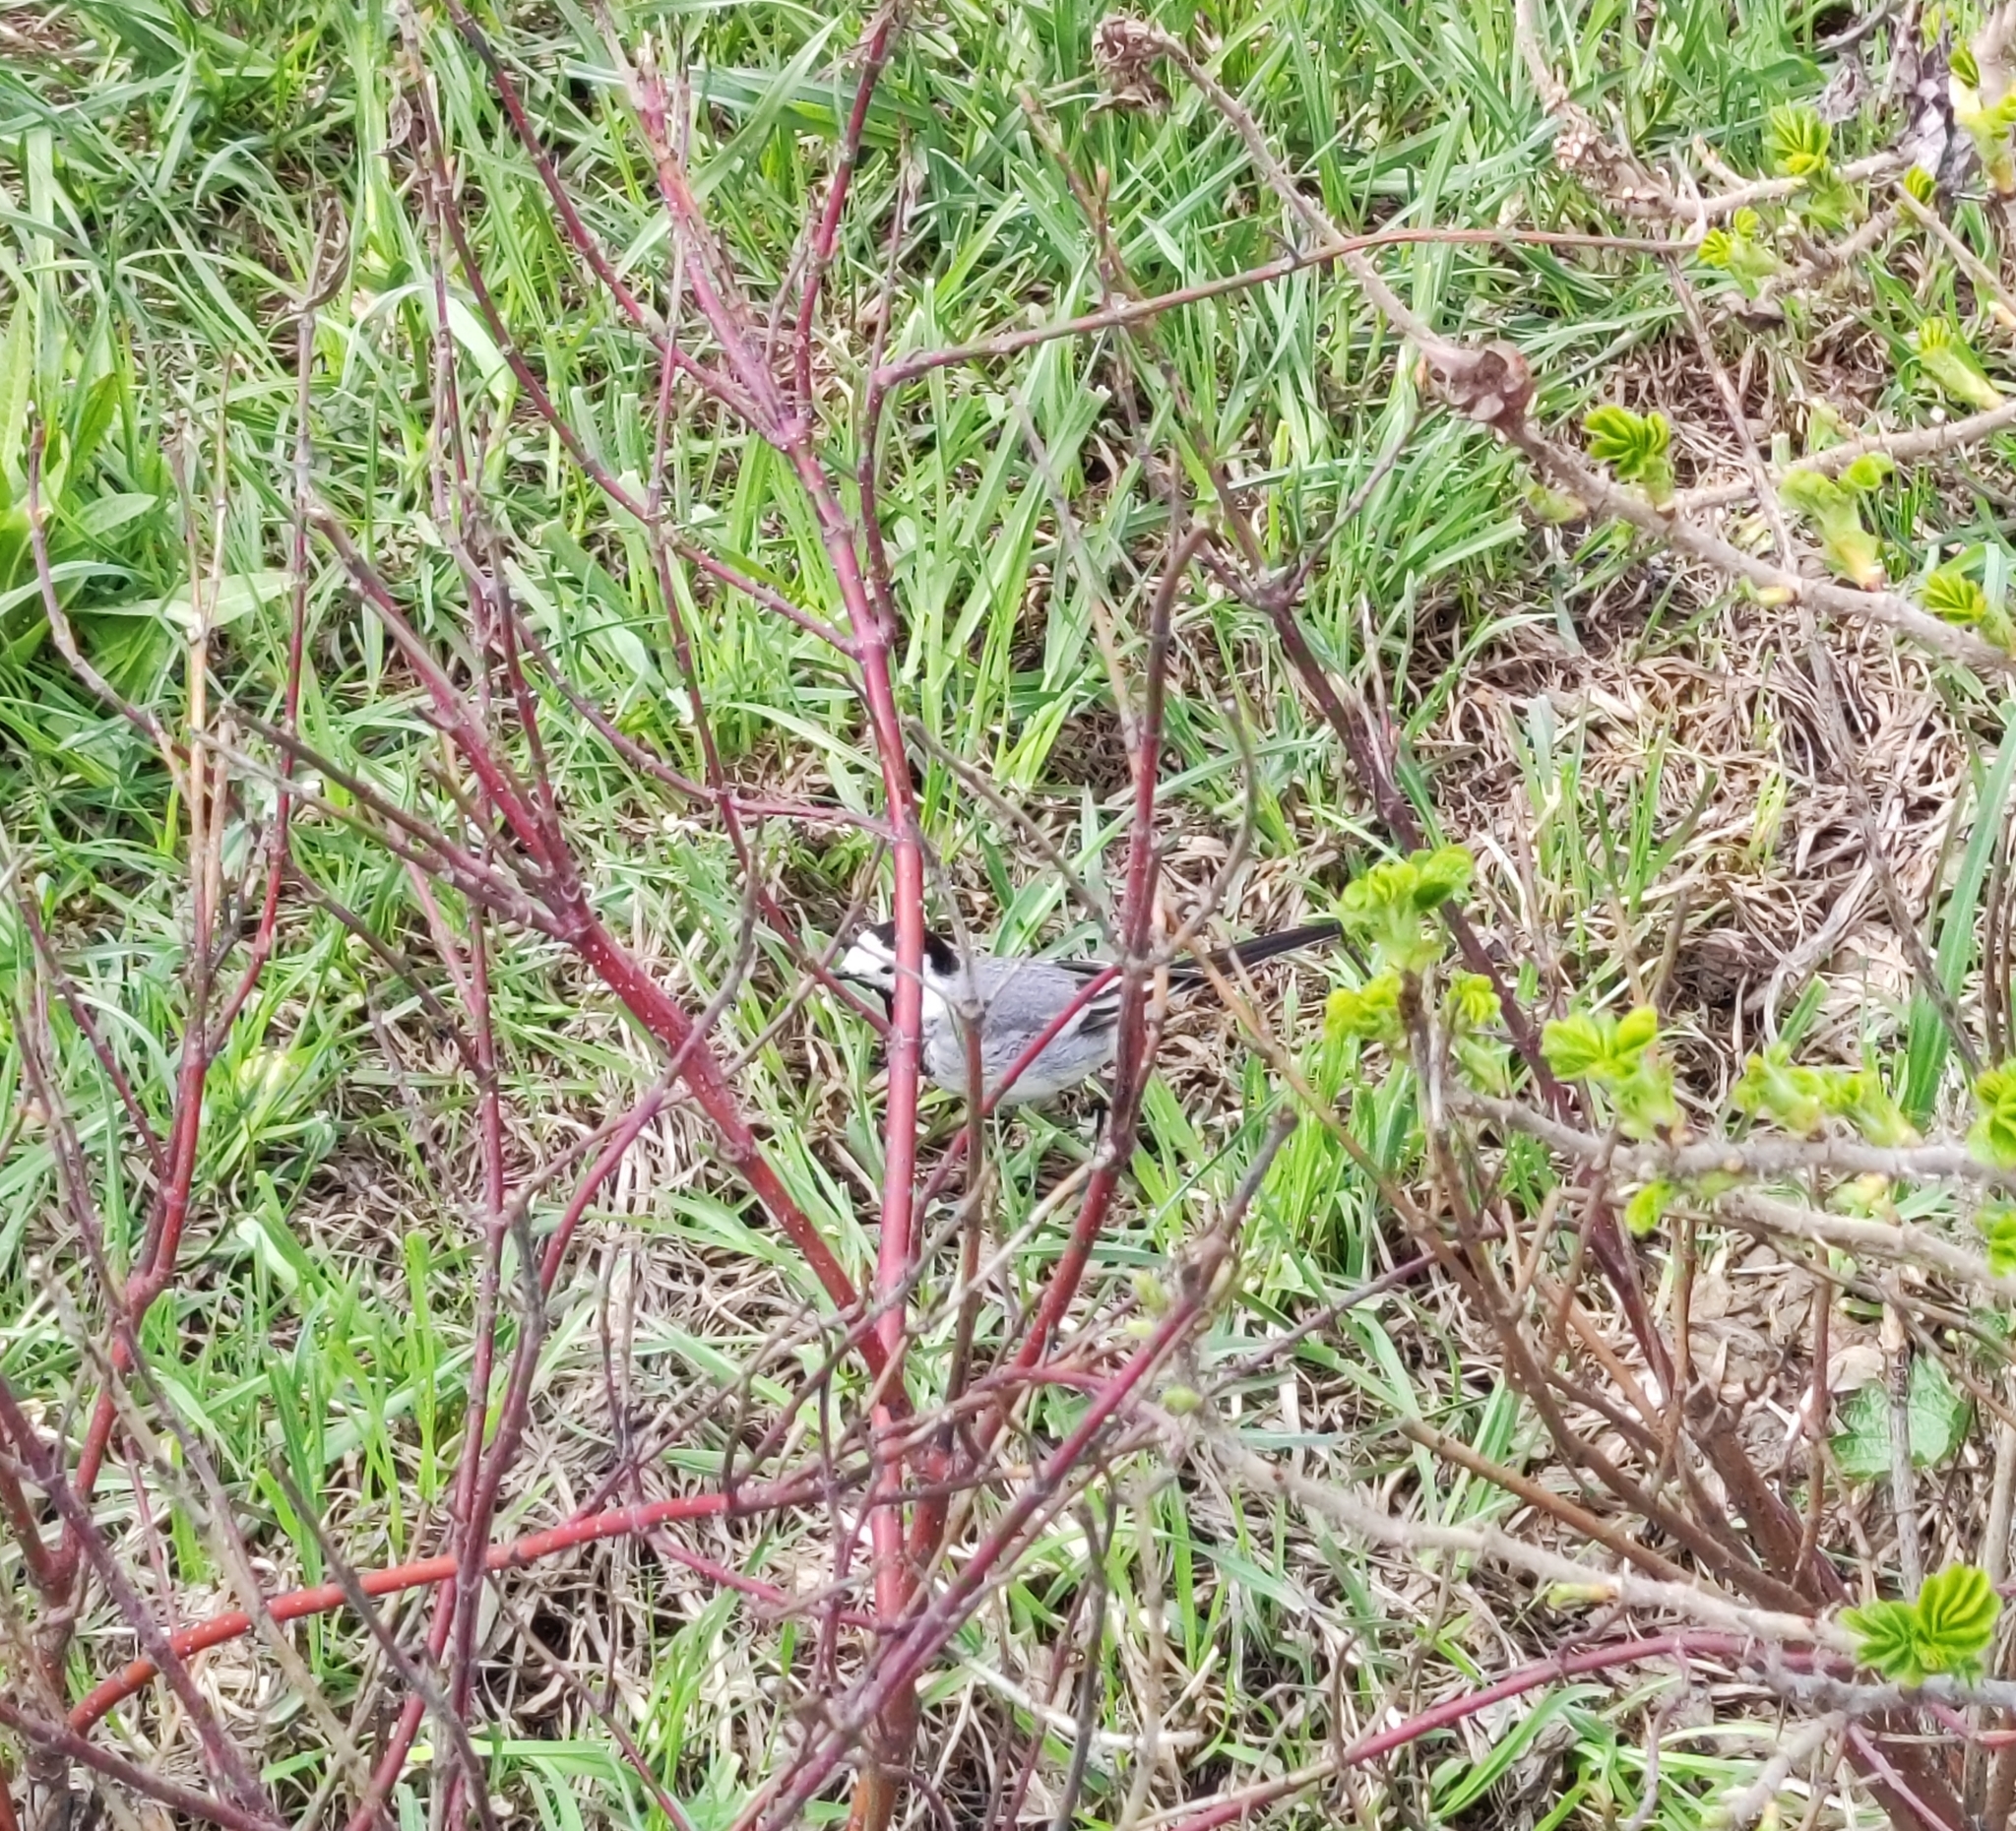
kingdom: Animalia
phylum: Chordata
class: Aves
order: Passeriformes
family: Motacillidae
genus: Motacilla
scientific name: Motacilla alba
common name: White wagtail
